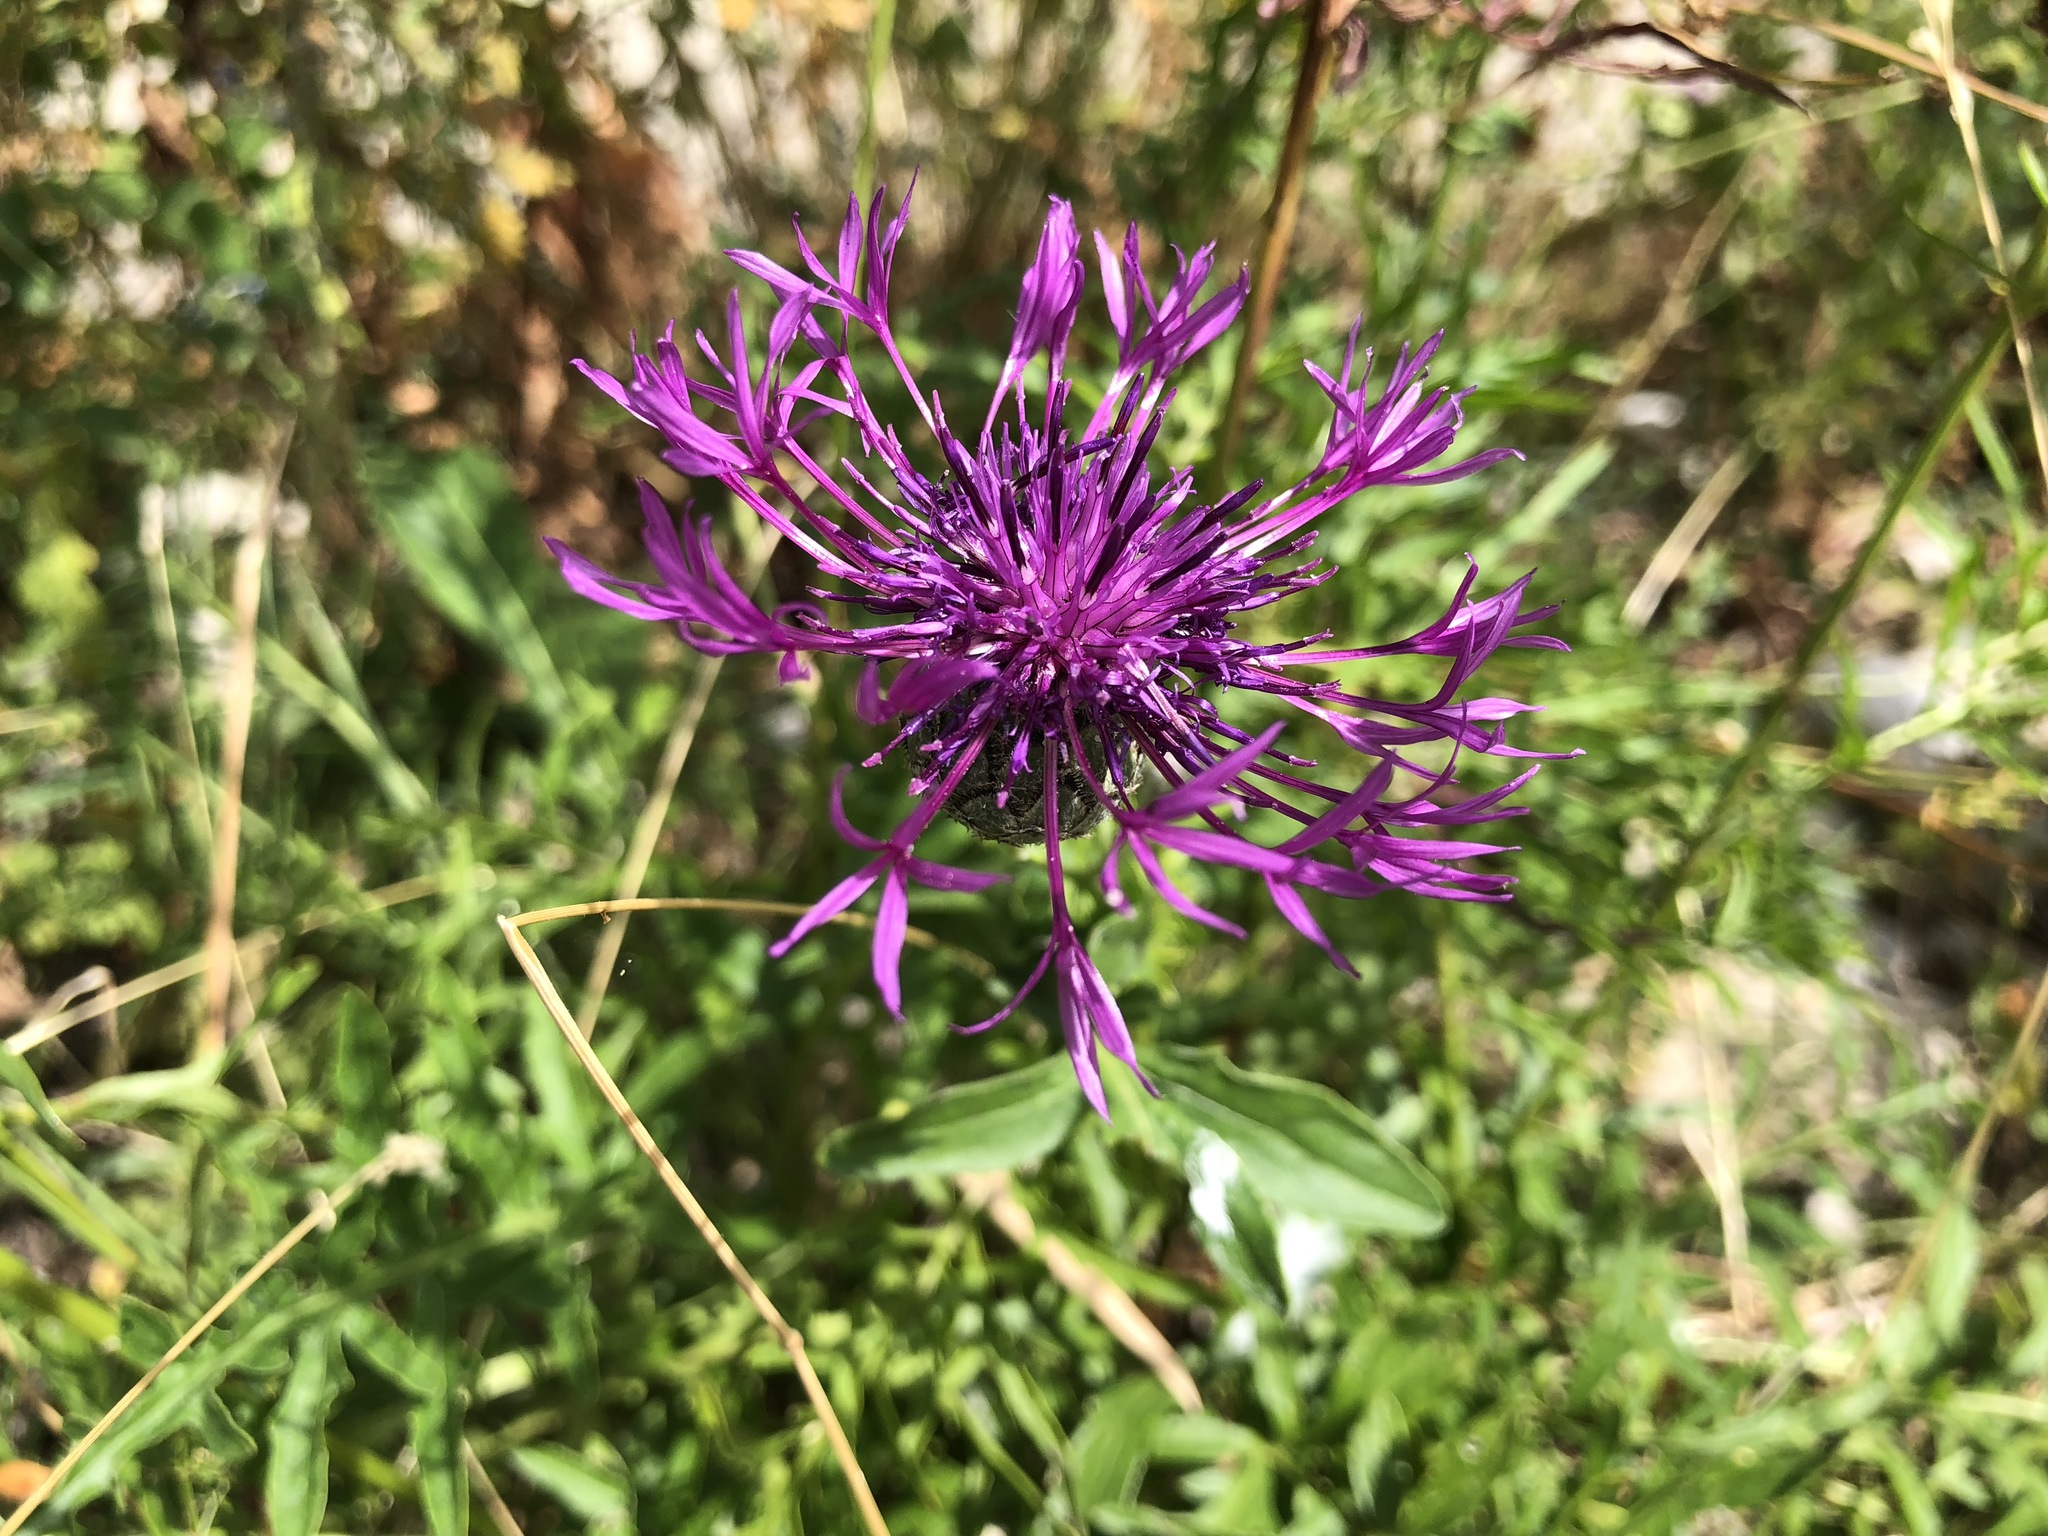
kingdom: Plantae
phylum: Tracheophyta
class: Magnoliopsida
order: Asterales
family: Asteraceae
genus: Centaurea
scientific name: Centaurea scabiosa
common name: Greater knapweed
